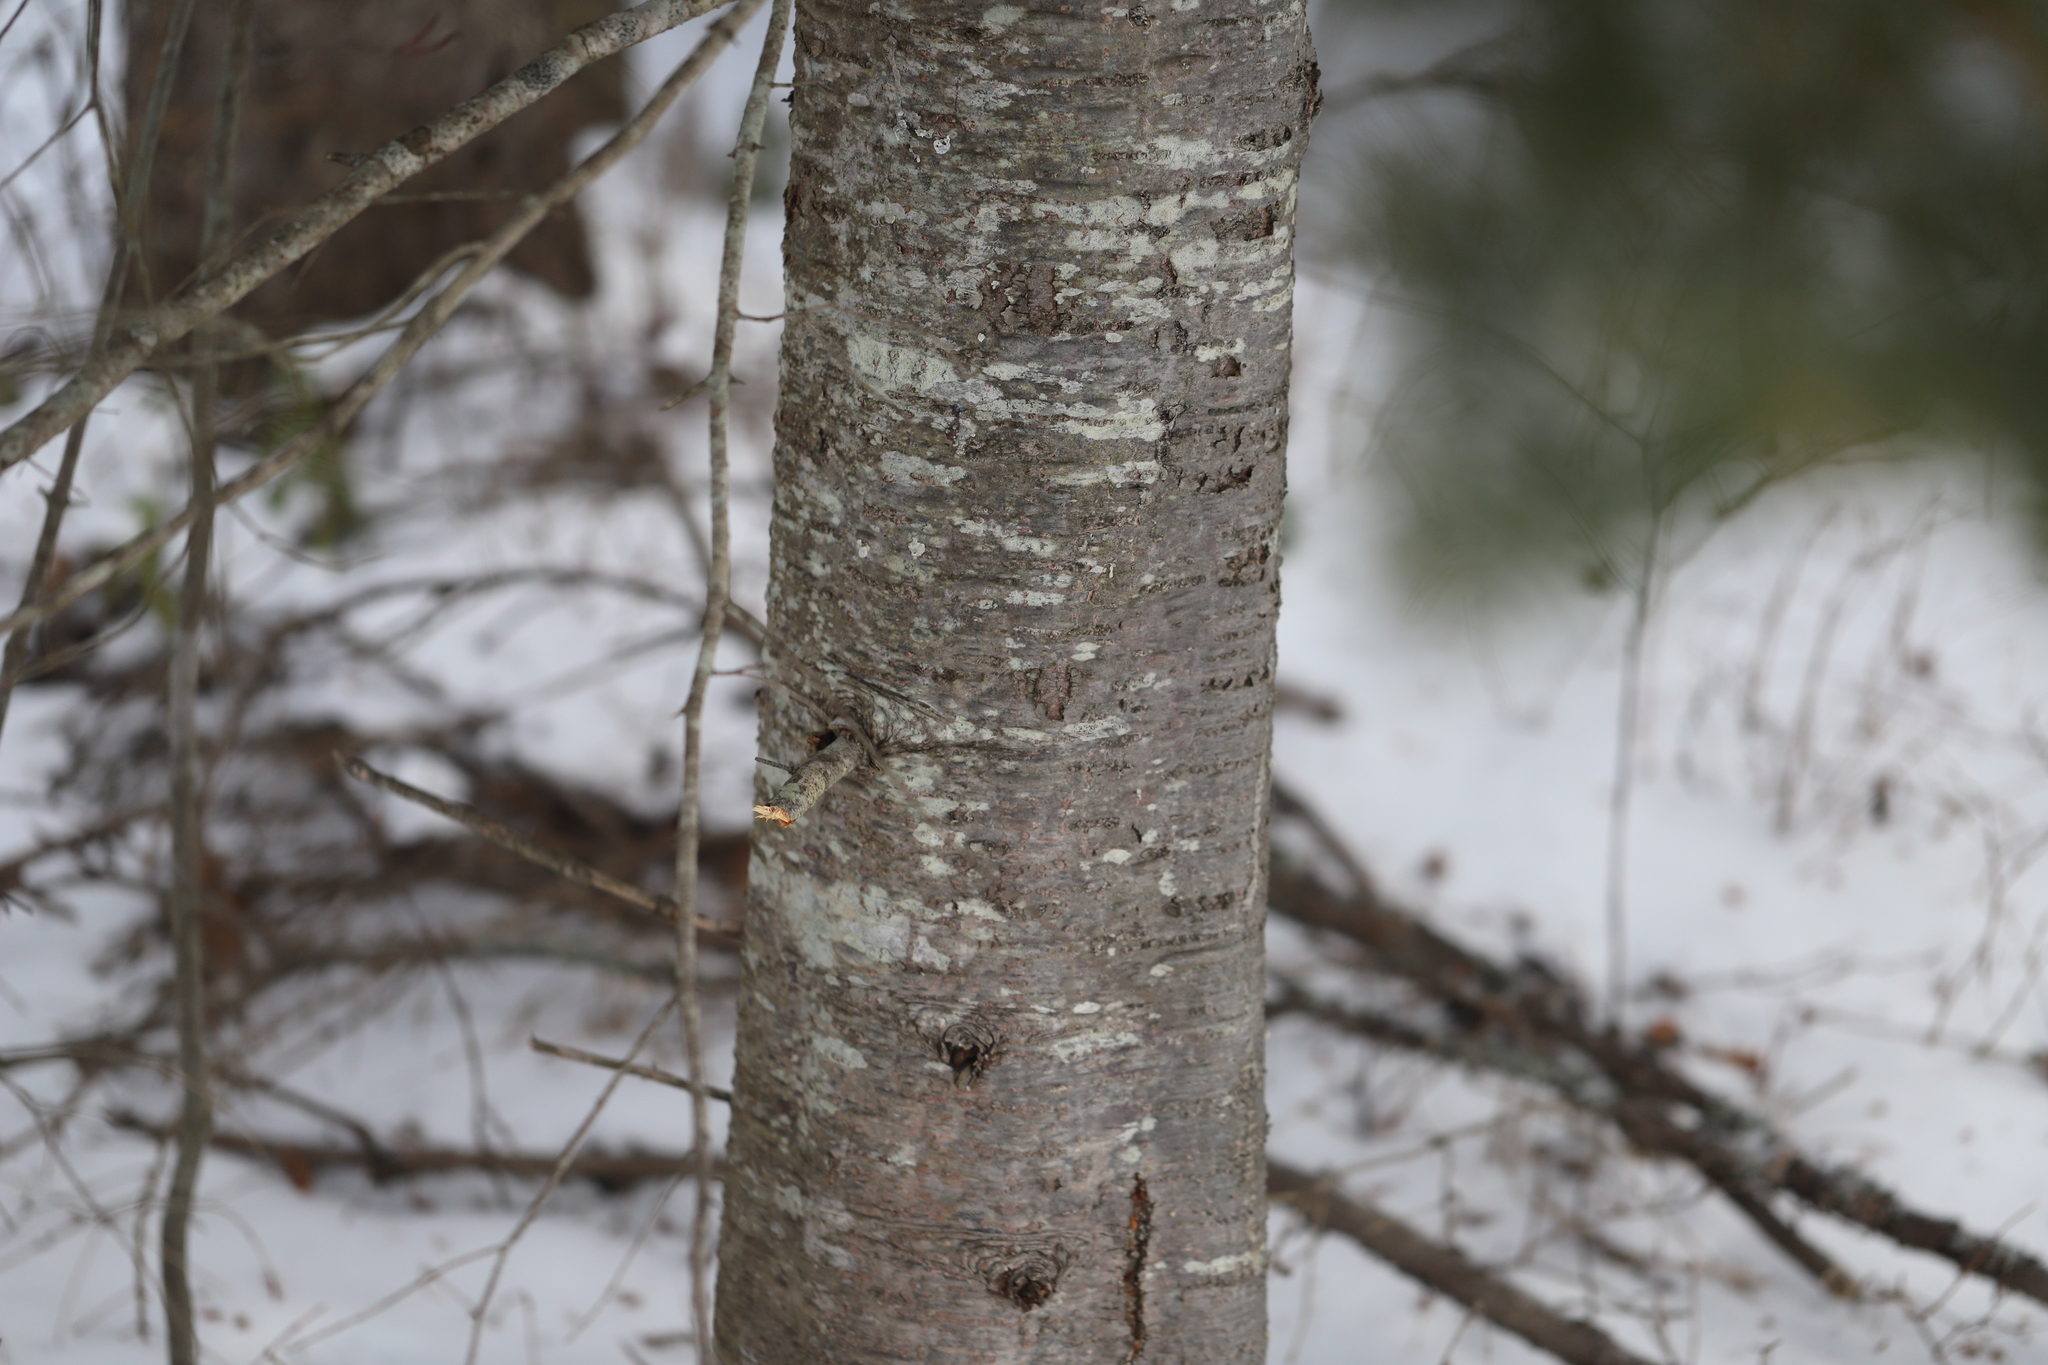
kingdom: Plantae
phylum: Tracheophyta
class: Pinopsida
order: Pinales
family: Pinaceae
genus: Abies
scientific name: Abies balsamea
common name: Balsam fir
